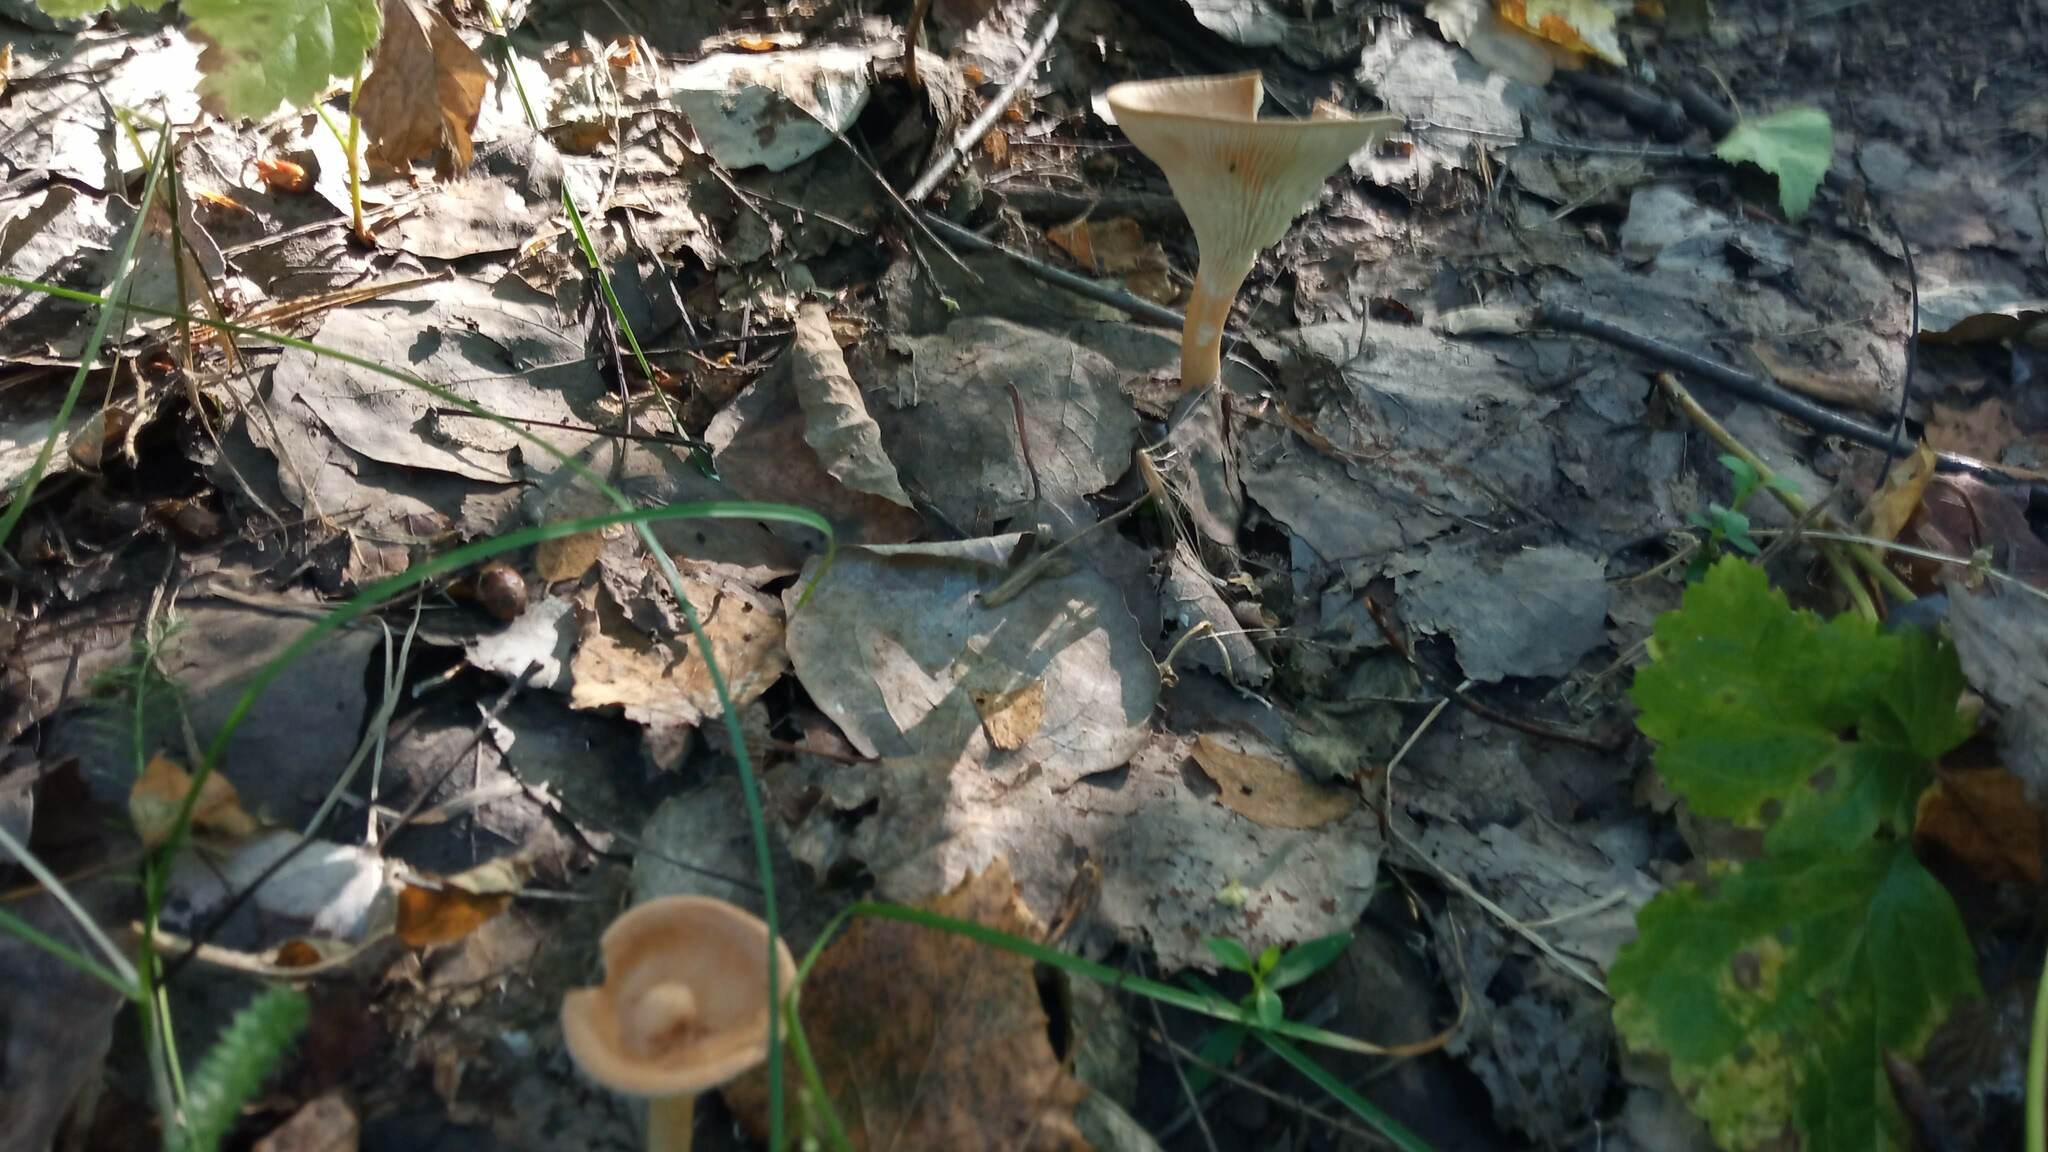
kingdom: Fungi
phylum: Basidiomycota
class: Agaricomycetes
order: Agaricales
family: Tricholomataceae
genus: Infundibulicybe
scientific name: Infundibulicybe gibba
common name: Common funnel
